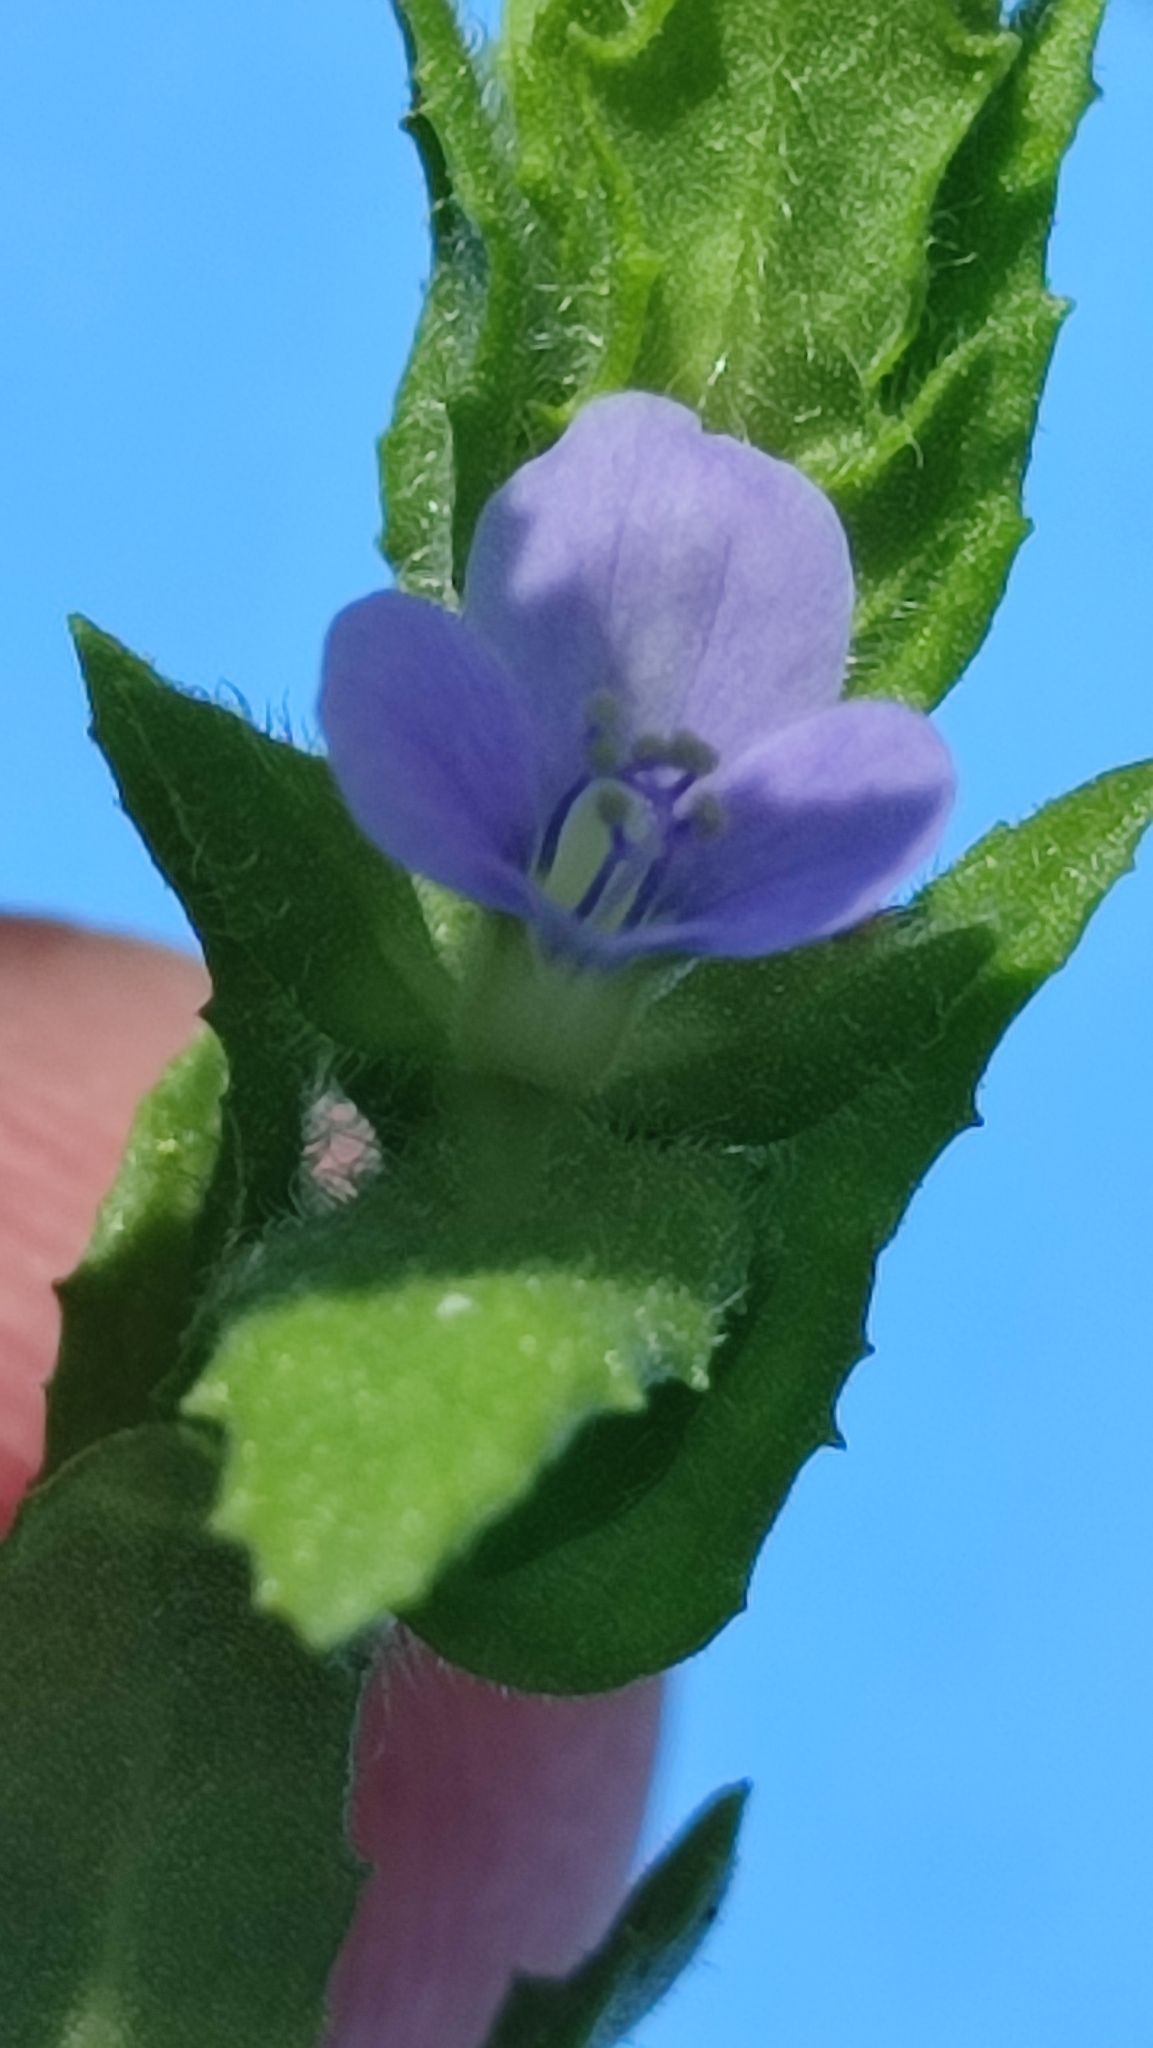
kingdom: Plantae
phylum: Tracheophyta
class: Magnoliopsida
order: Lamiales
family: Plantaginaceae
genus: Stemodia
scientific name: Stemodia maritima
